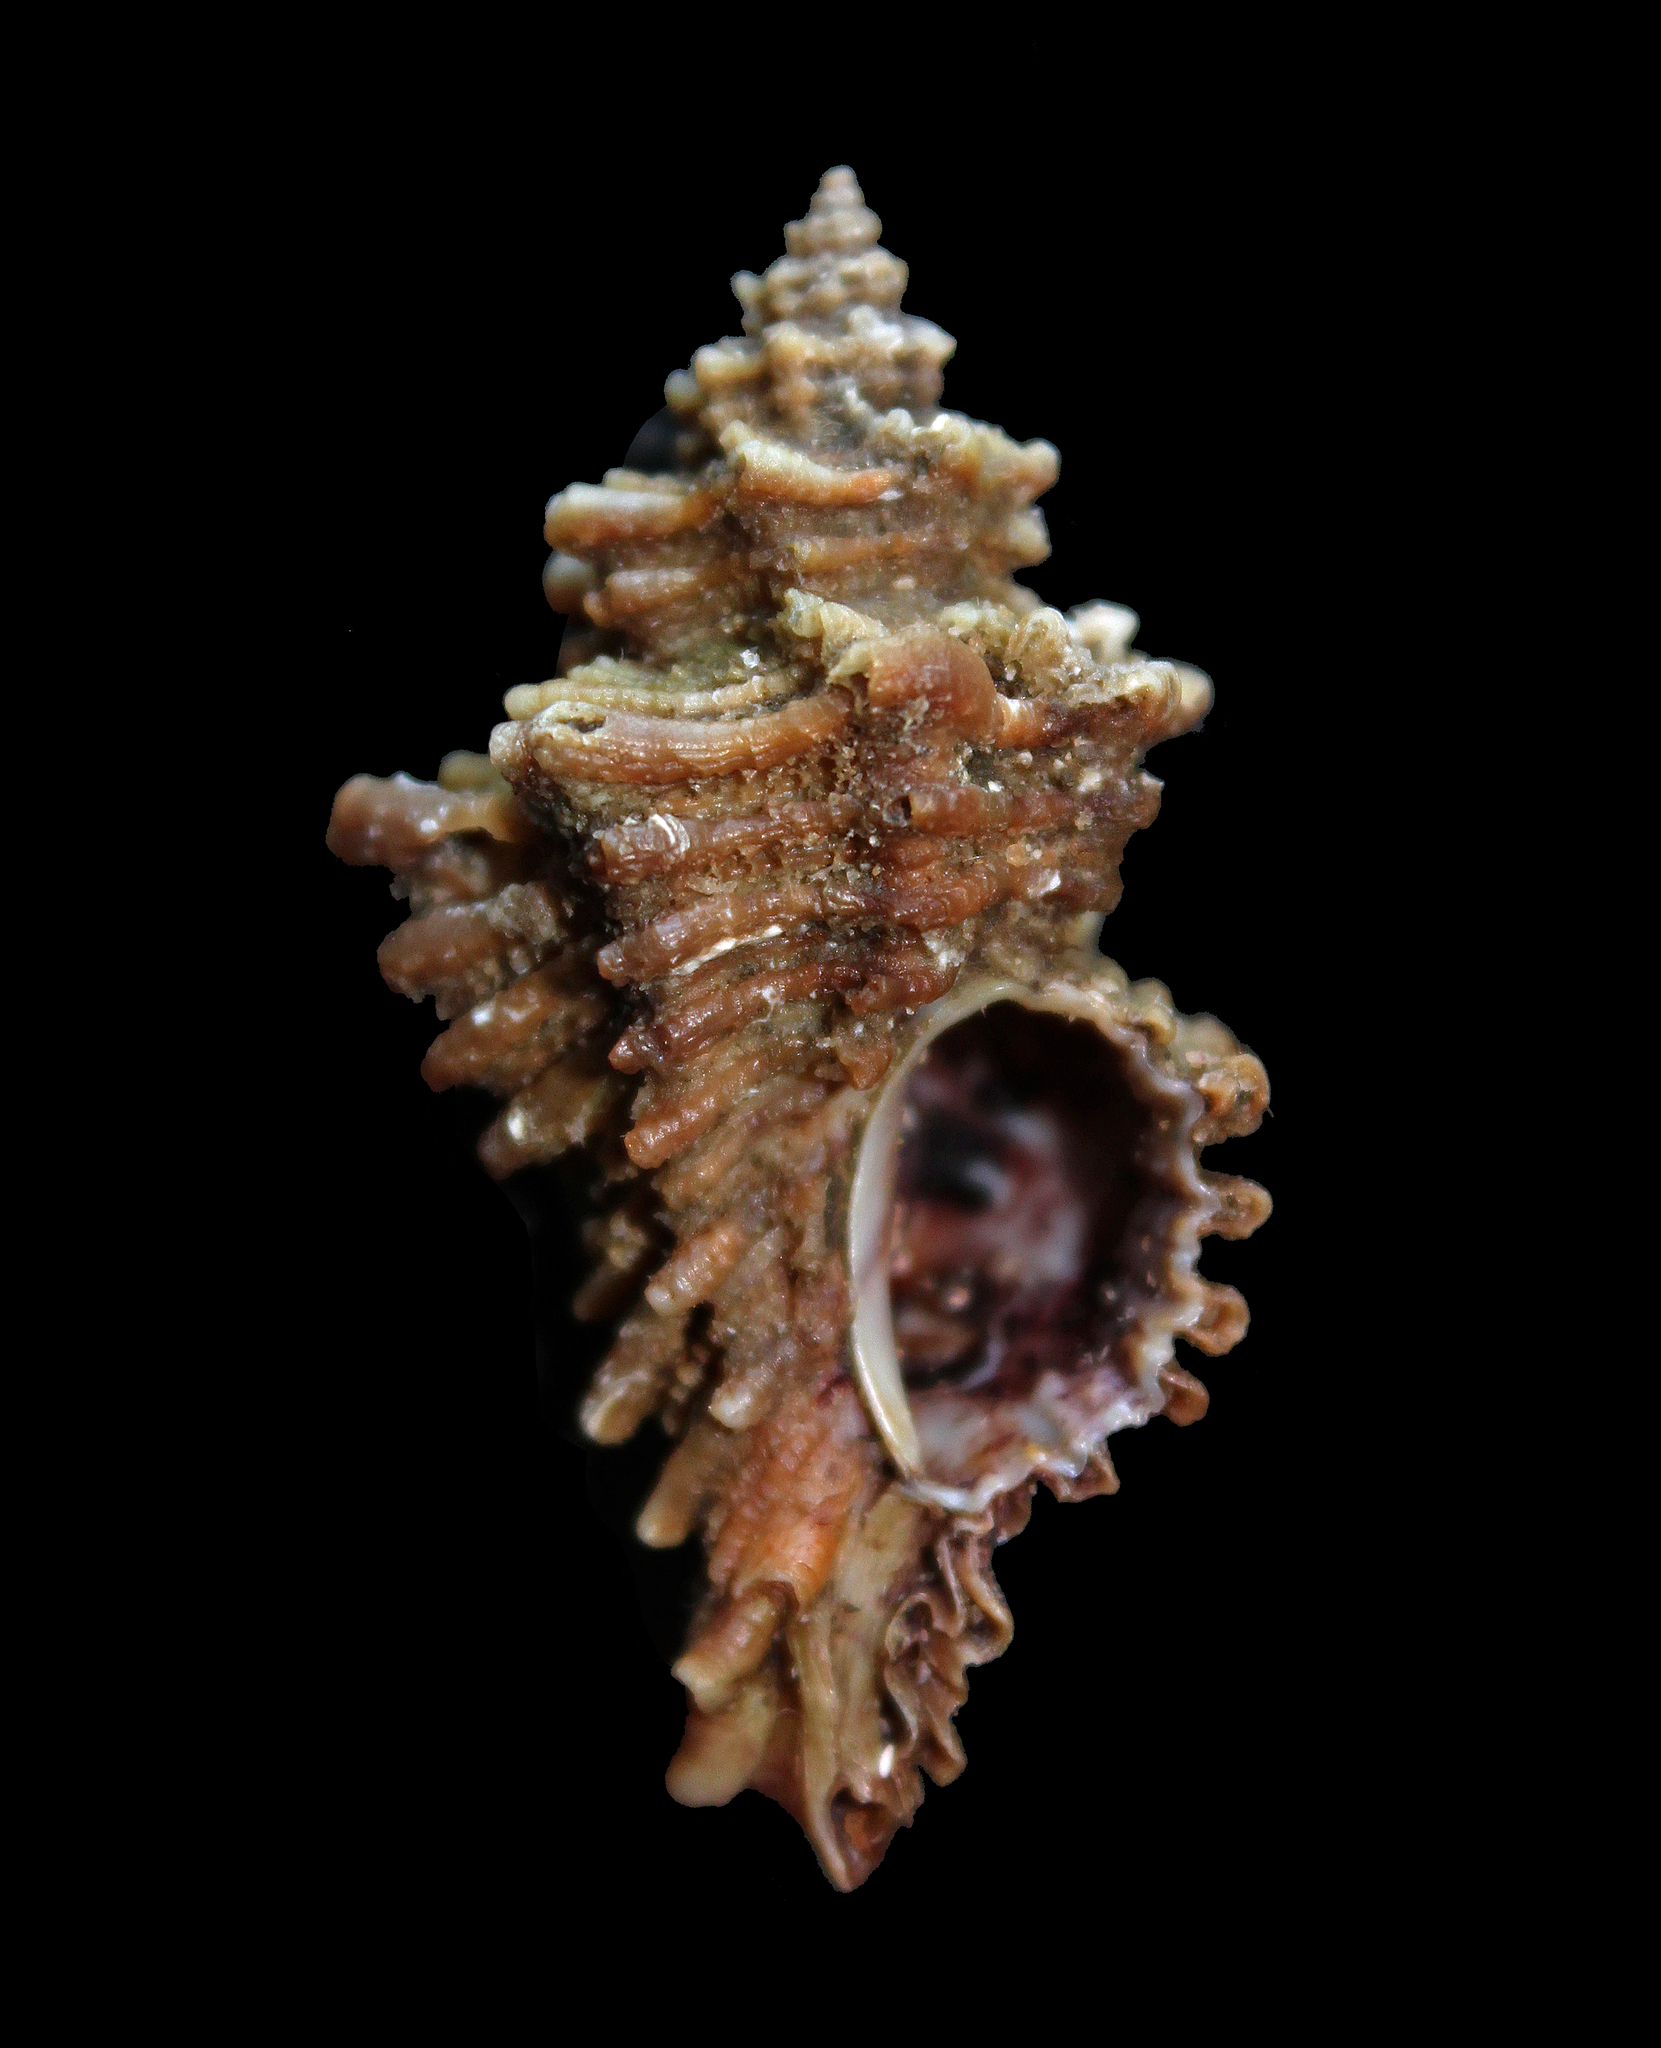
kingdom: Animalia
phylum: Mollusca
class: Gastropoda
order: Neogastropoda
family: Muricidae
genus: Ocenebra
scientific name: Ocenebra erinaceus
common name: European sting winkle
